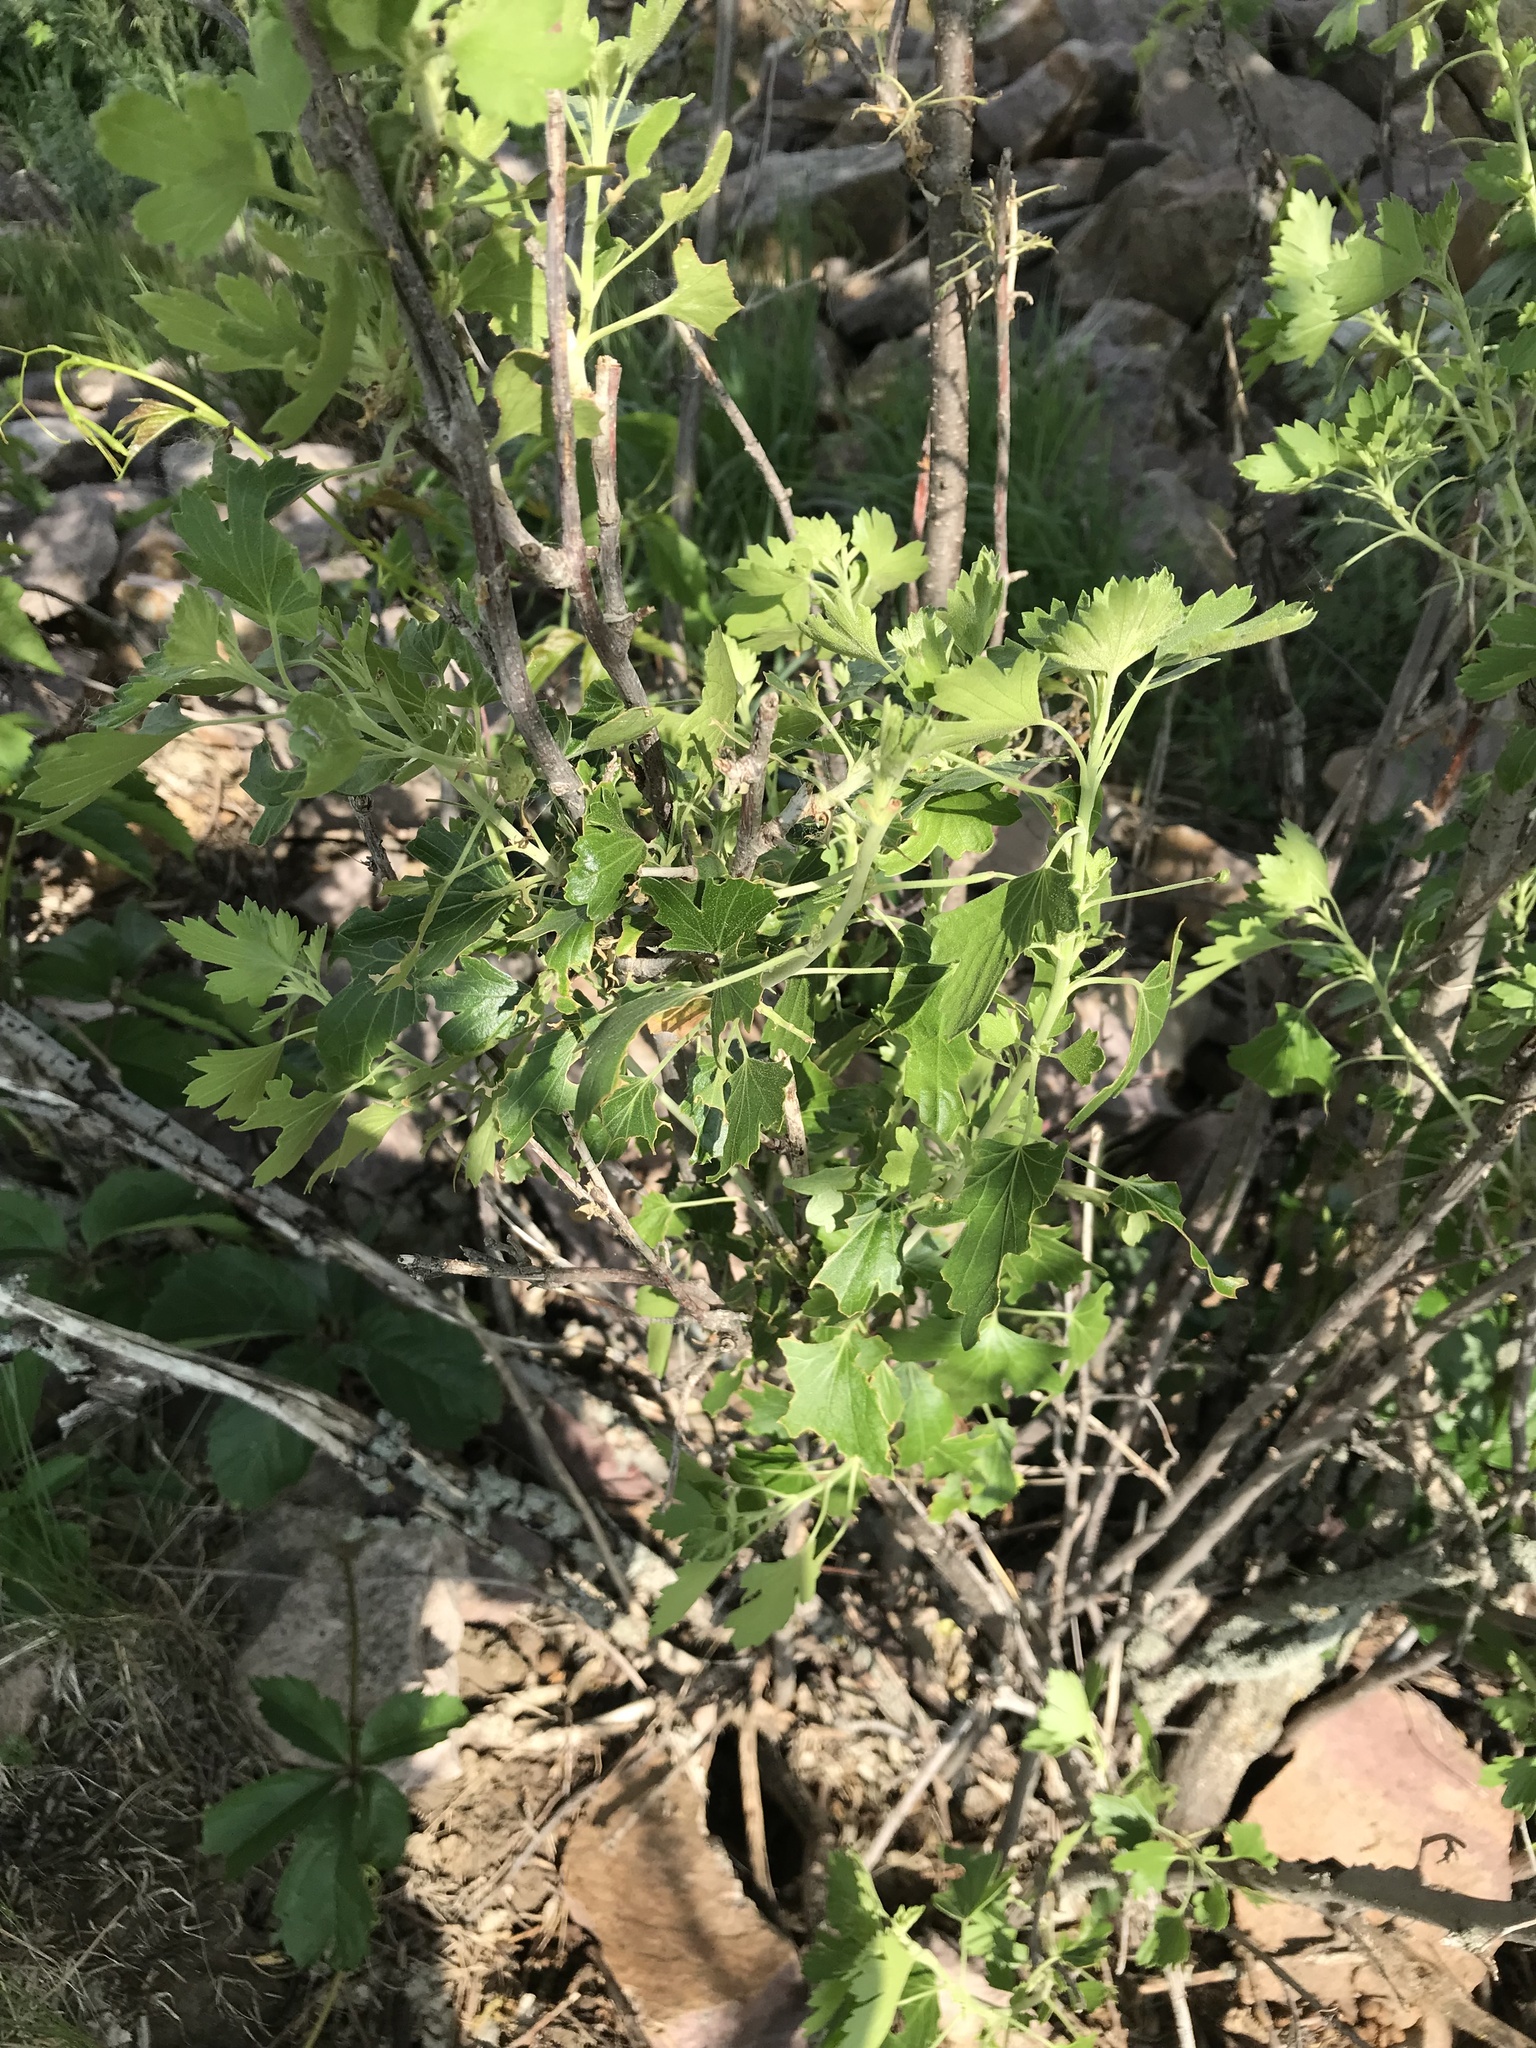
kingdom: Plantae
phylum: Tracheophyta
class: Magnoliopsida
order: Saxifragales
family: Grossulariaceae
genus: Ribes
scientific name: Ribes aureum
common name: Golden currant
